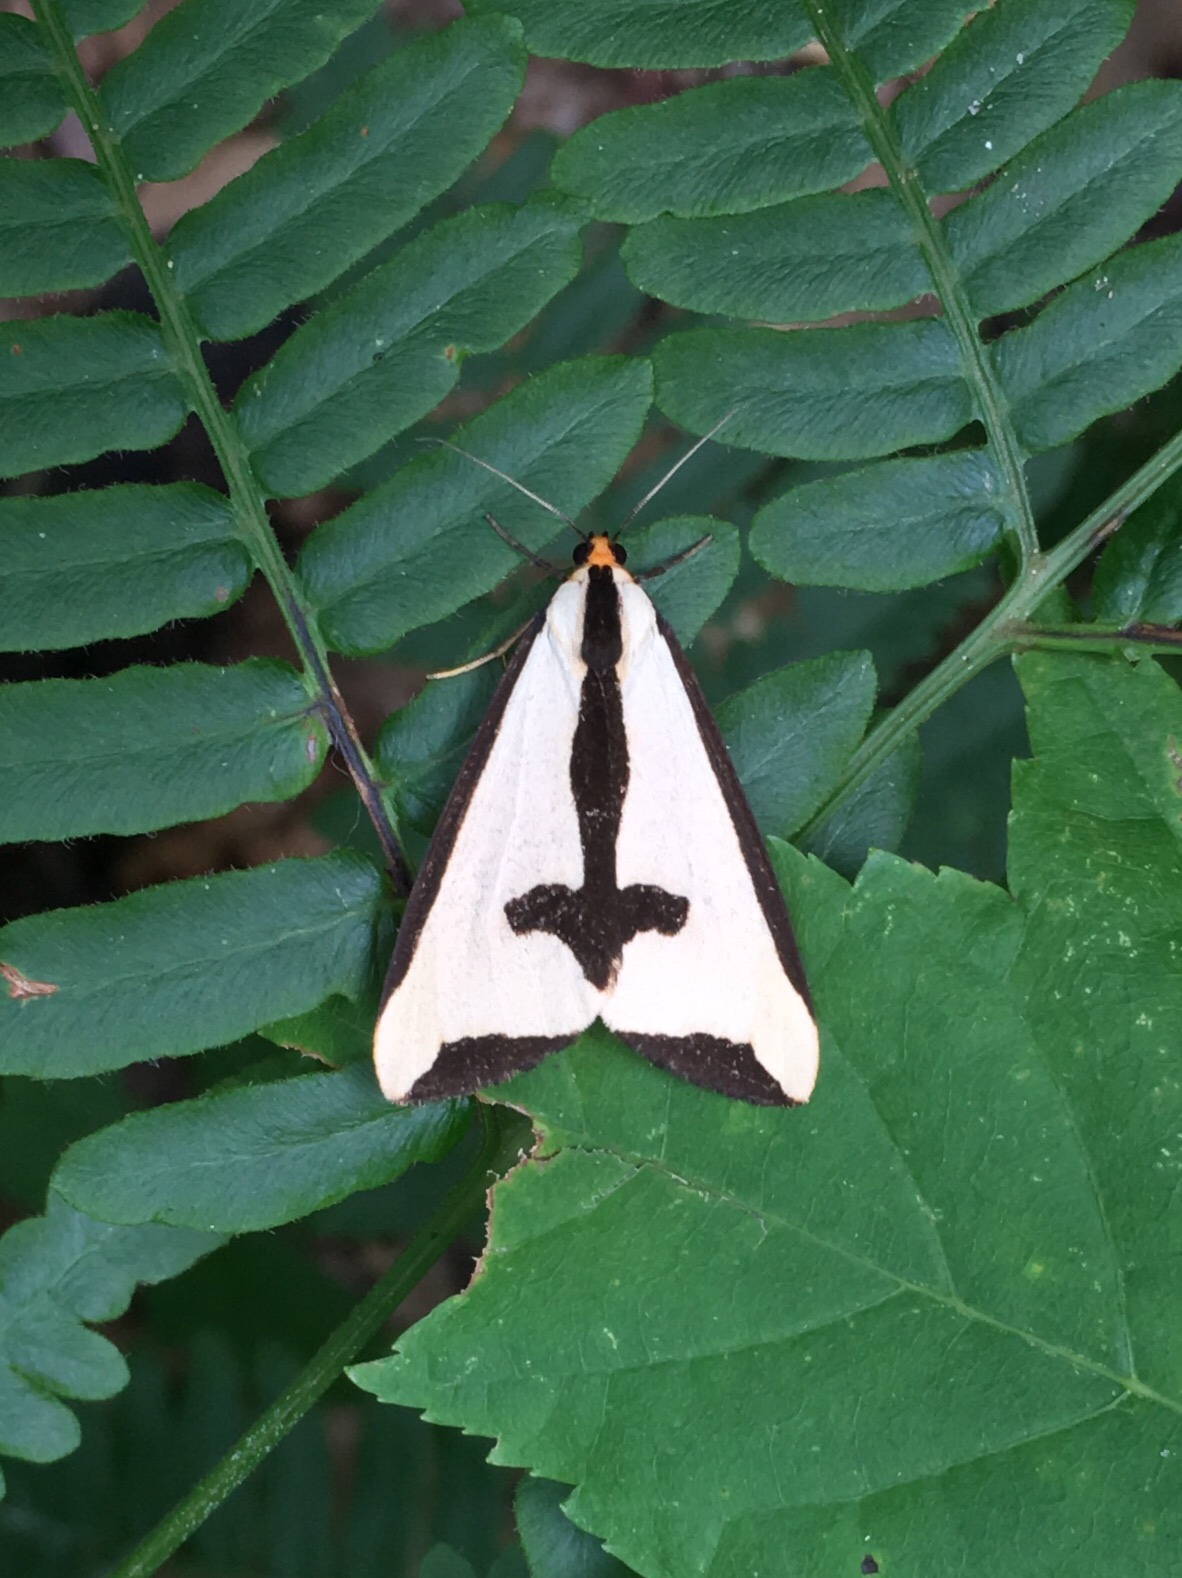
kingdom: Animalia
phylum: Arthropoda
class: Insecta
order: Lepidoptera
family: Erebidae
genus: Haploa
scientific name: Haploa clymene
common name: Clymene moth
